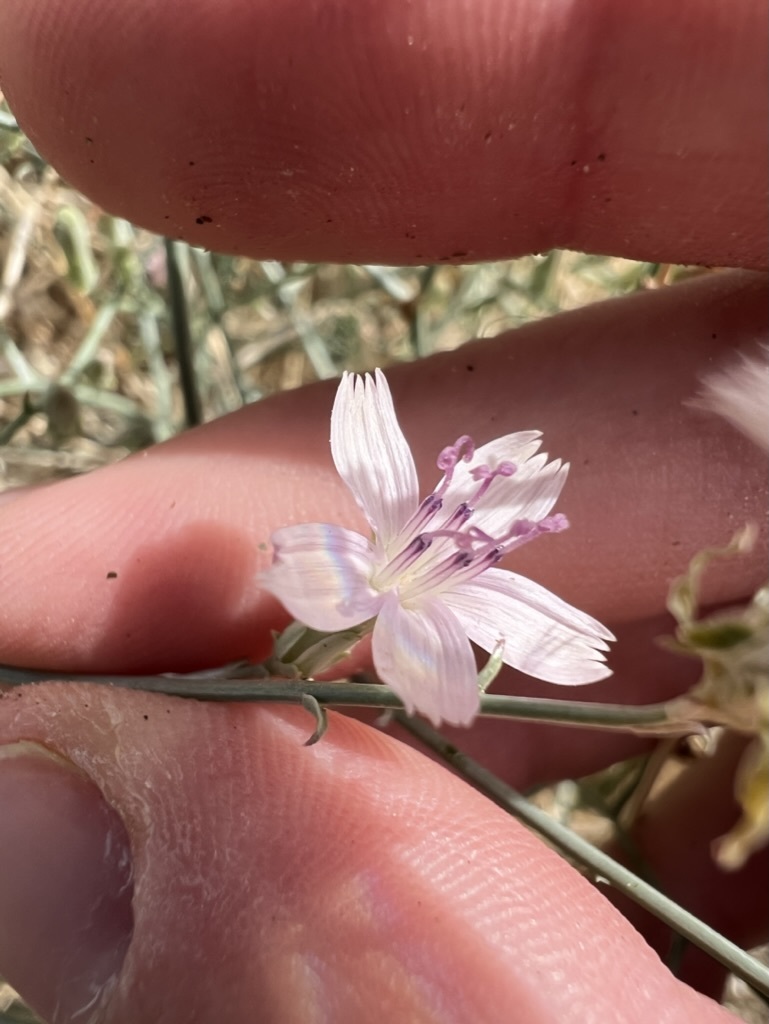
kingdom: Plantae
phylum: Tracheophyta
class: Magnoliopsida
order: Asterales
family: Asteraceae
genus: Stephanomeria
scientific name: Stephanomeria pauciflora
